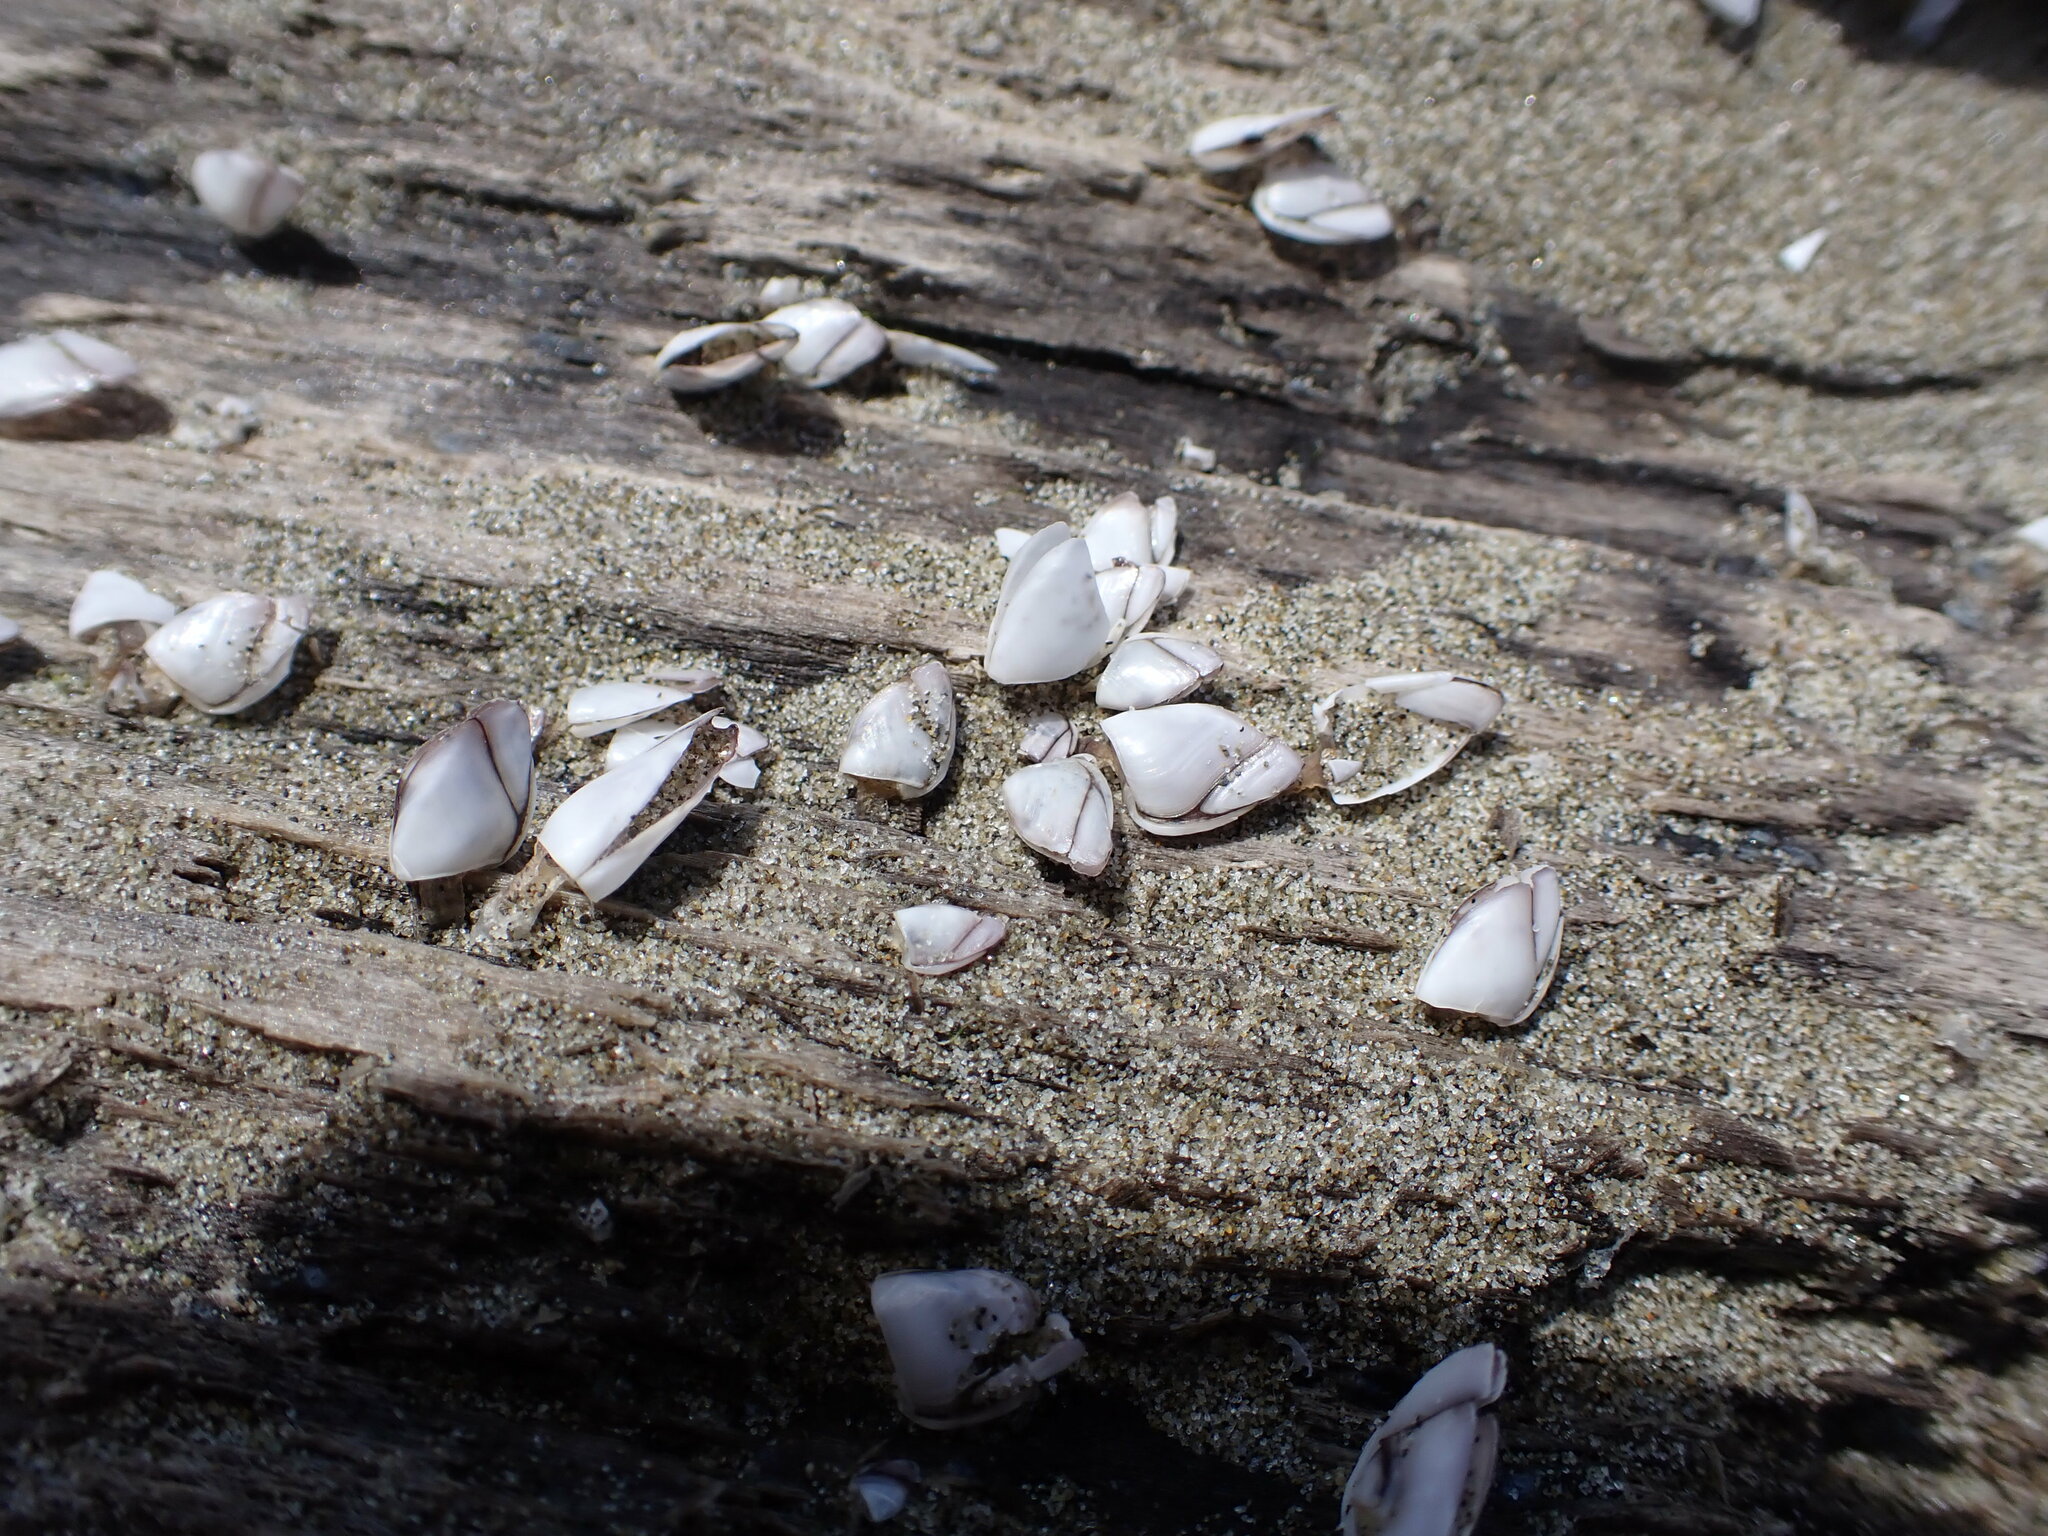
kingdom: Animalia
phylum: Arthropoda
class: Maxillopoda
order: Pedunculata
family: Lepadidae
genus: Lepas
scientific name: Lepas australis
